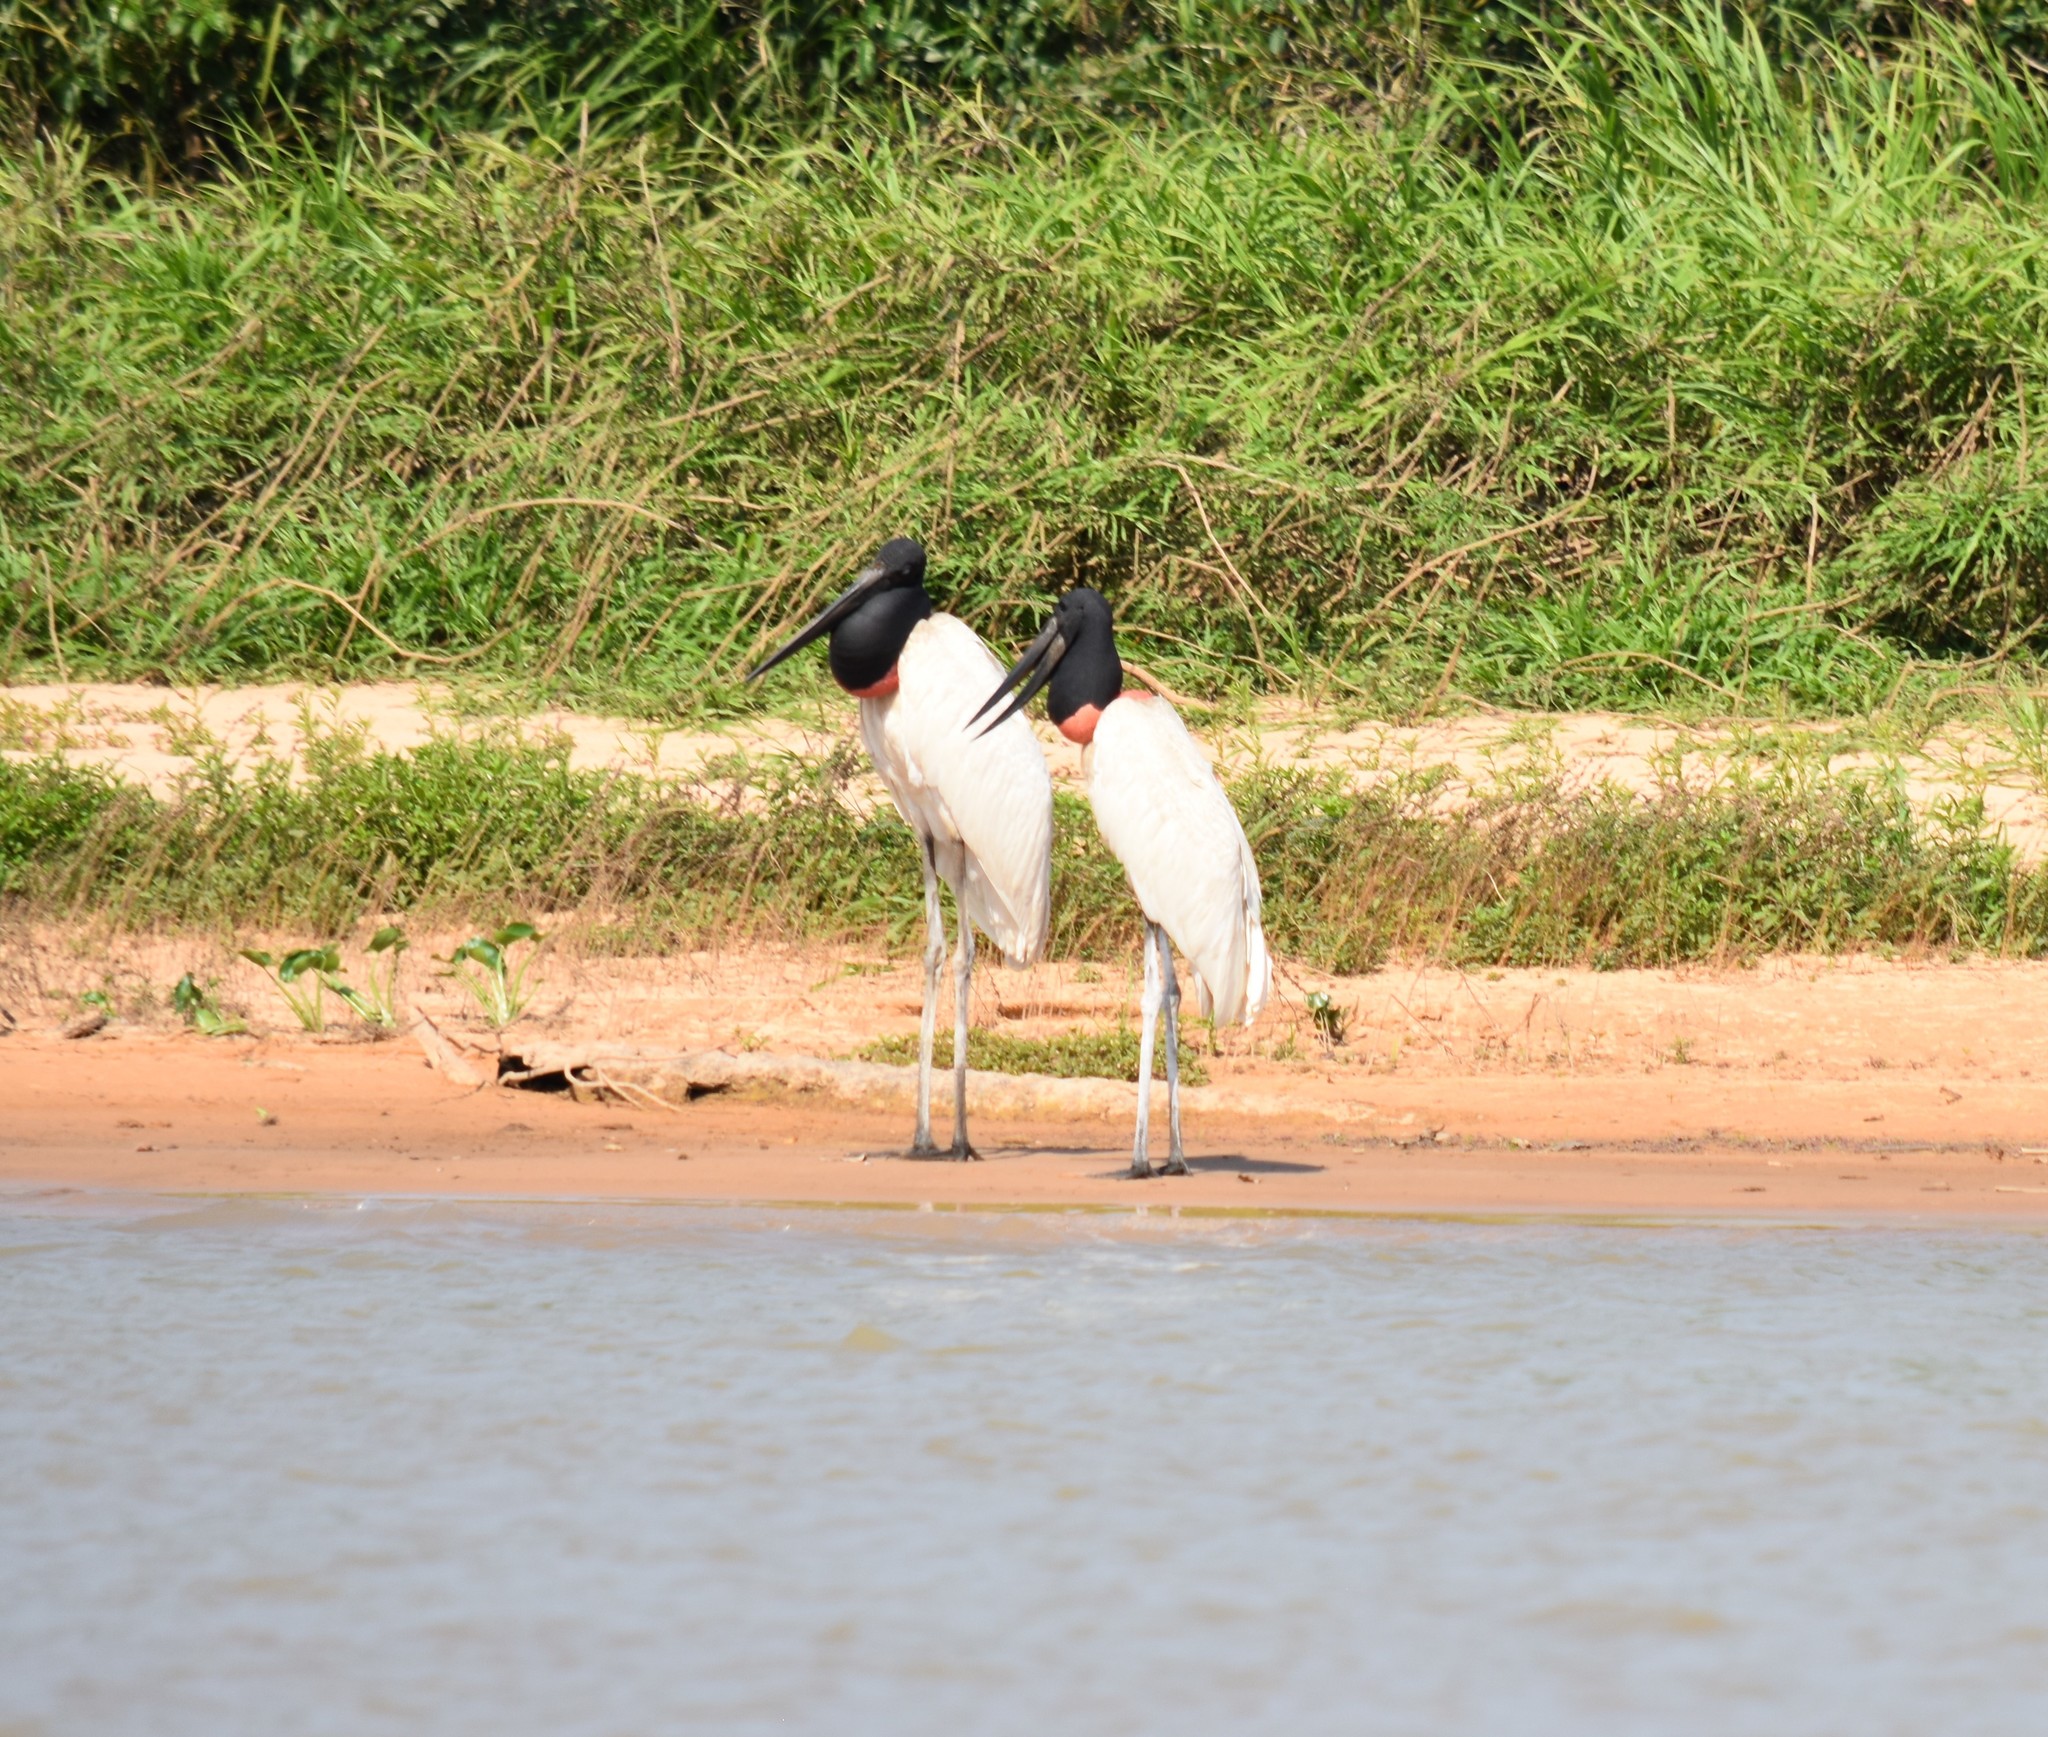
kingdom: Animalia
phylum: Chordata
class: Aves
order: Ciconiiformes
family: Ciconiidae
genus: Jabiru
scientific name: Jabiru mycteria
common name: Jabiru
